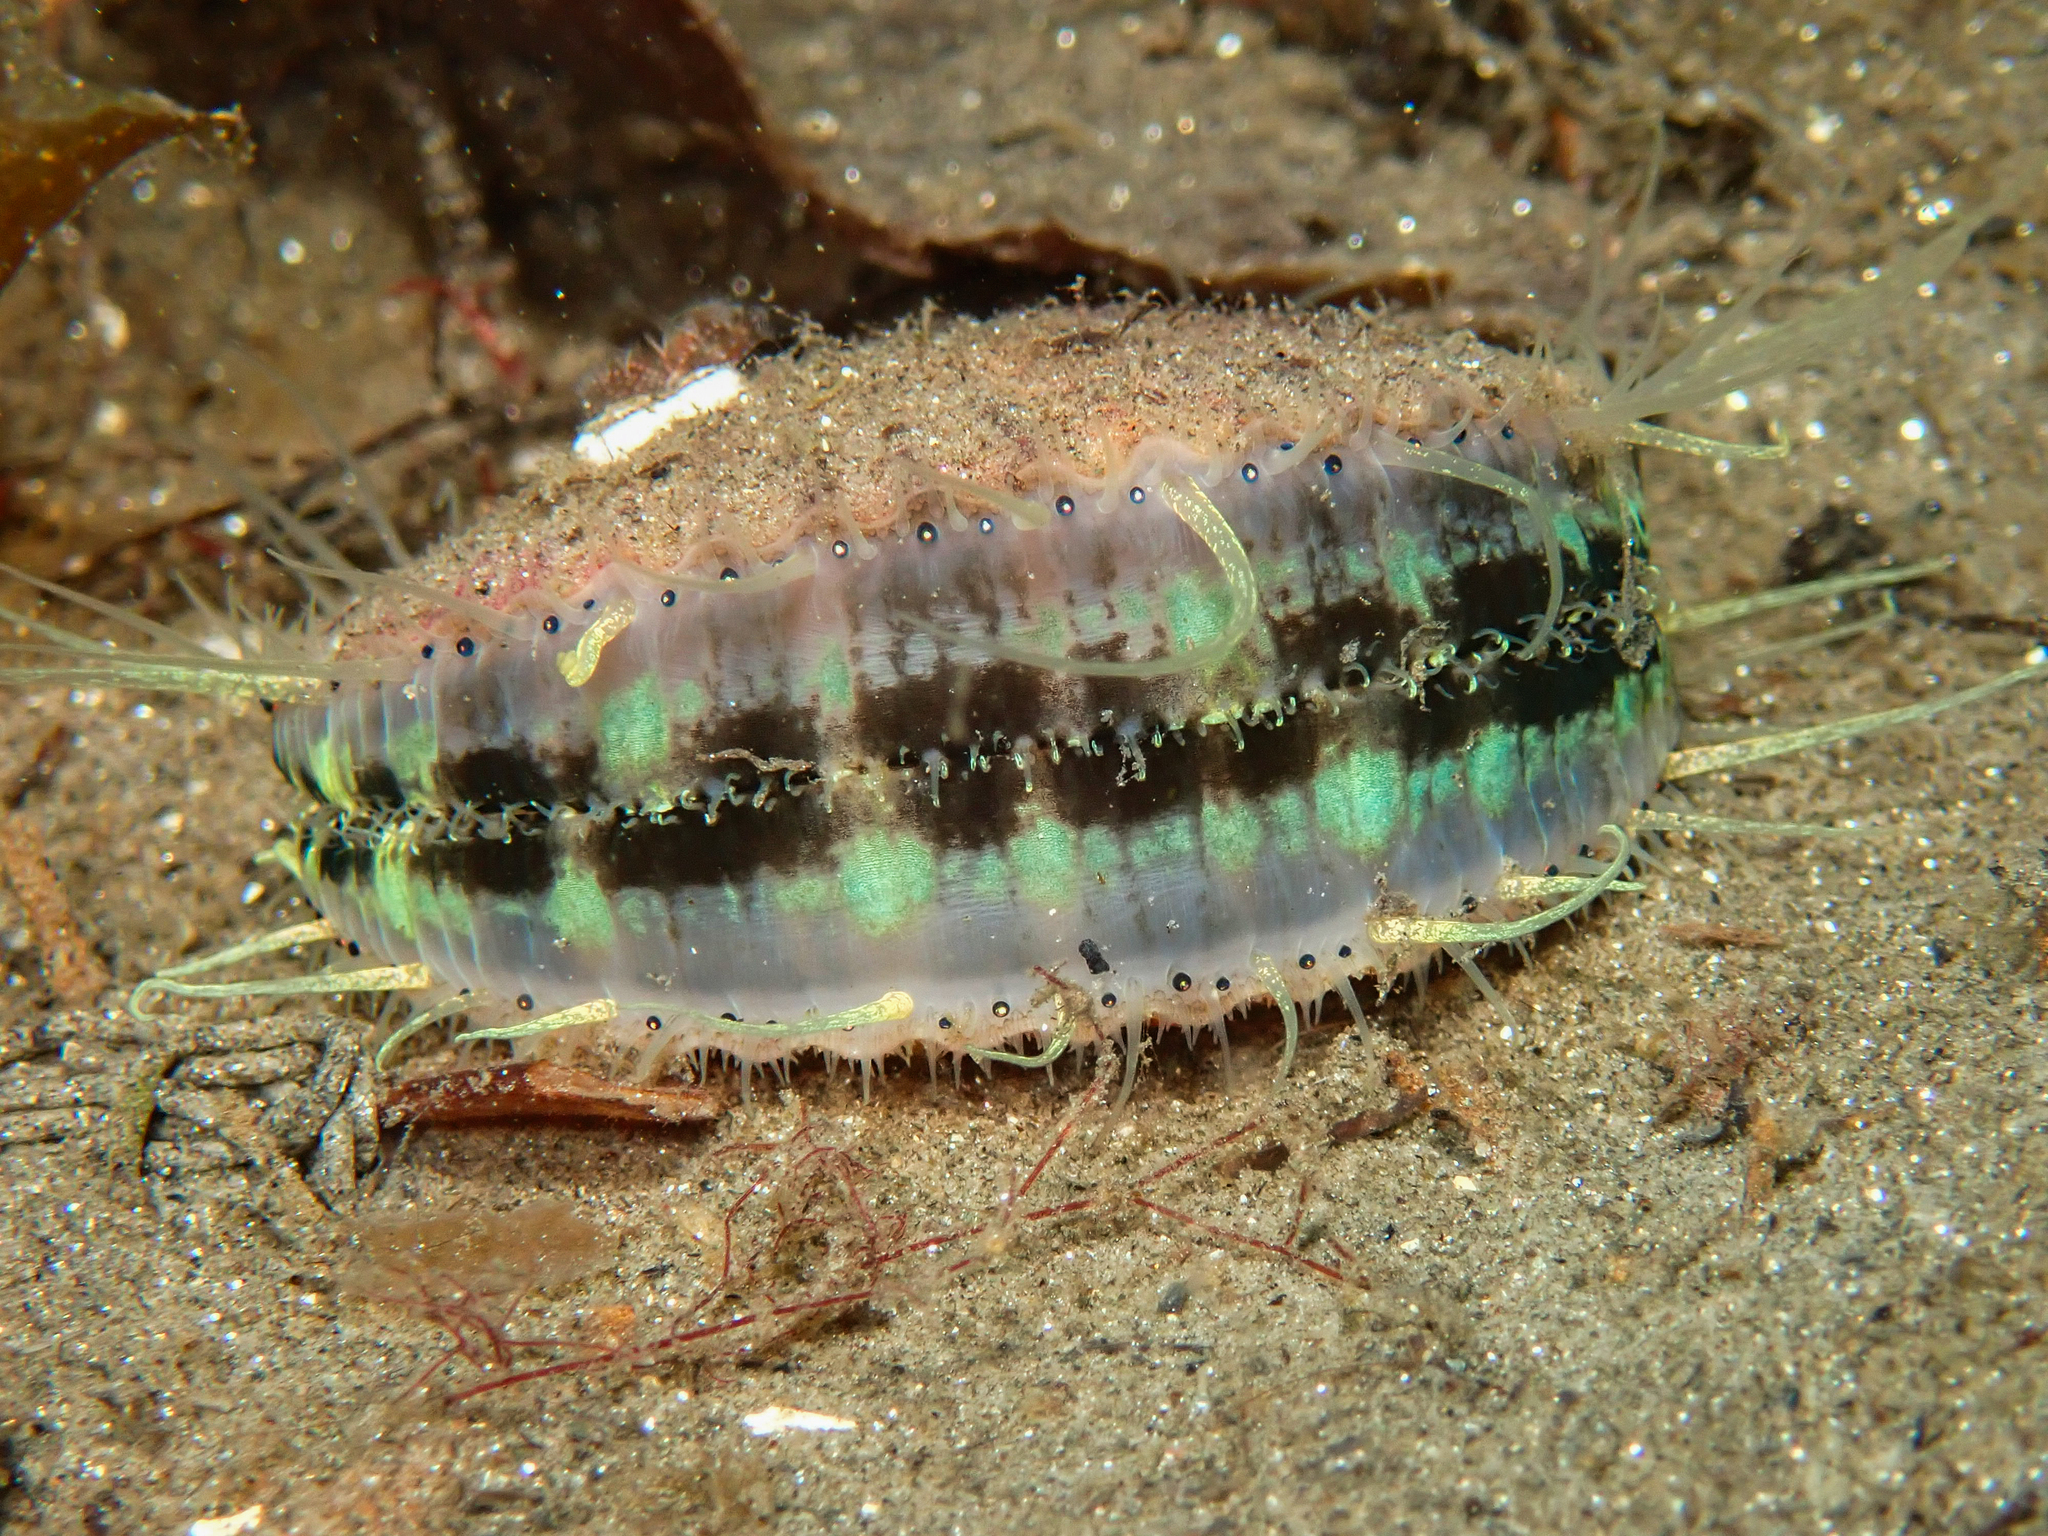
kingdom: Animalia
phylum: Mollusca
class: Bivalvia
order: Pectinida
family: Pectinidae
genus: Aequipecten
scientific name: Aequipecten opercularis
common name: Queen scallop
